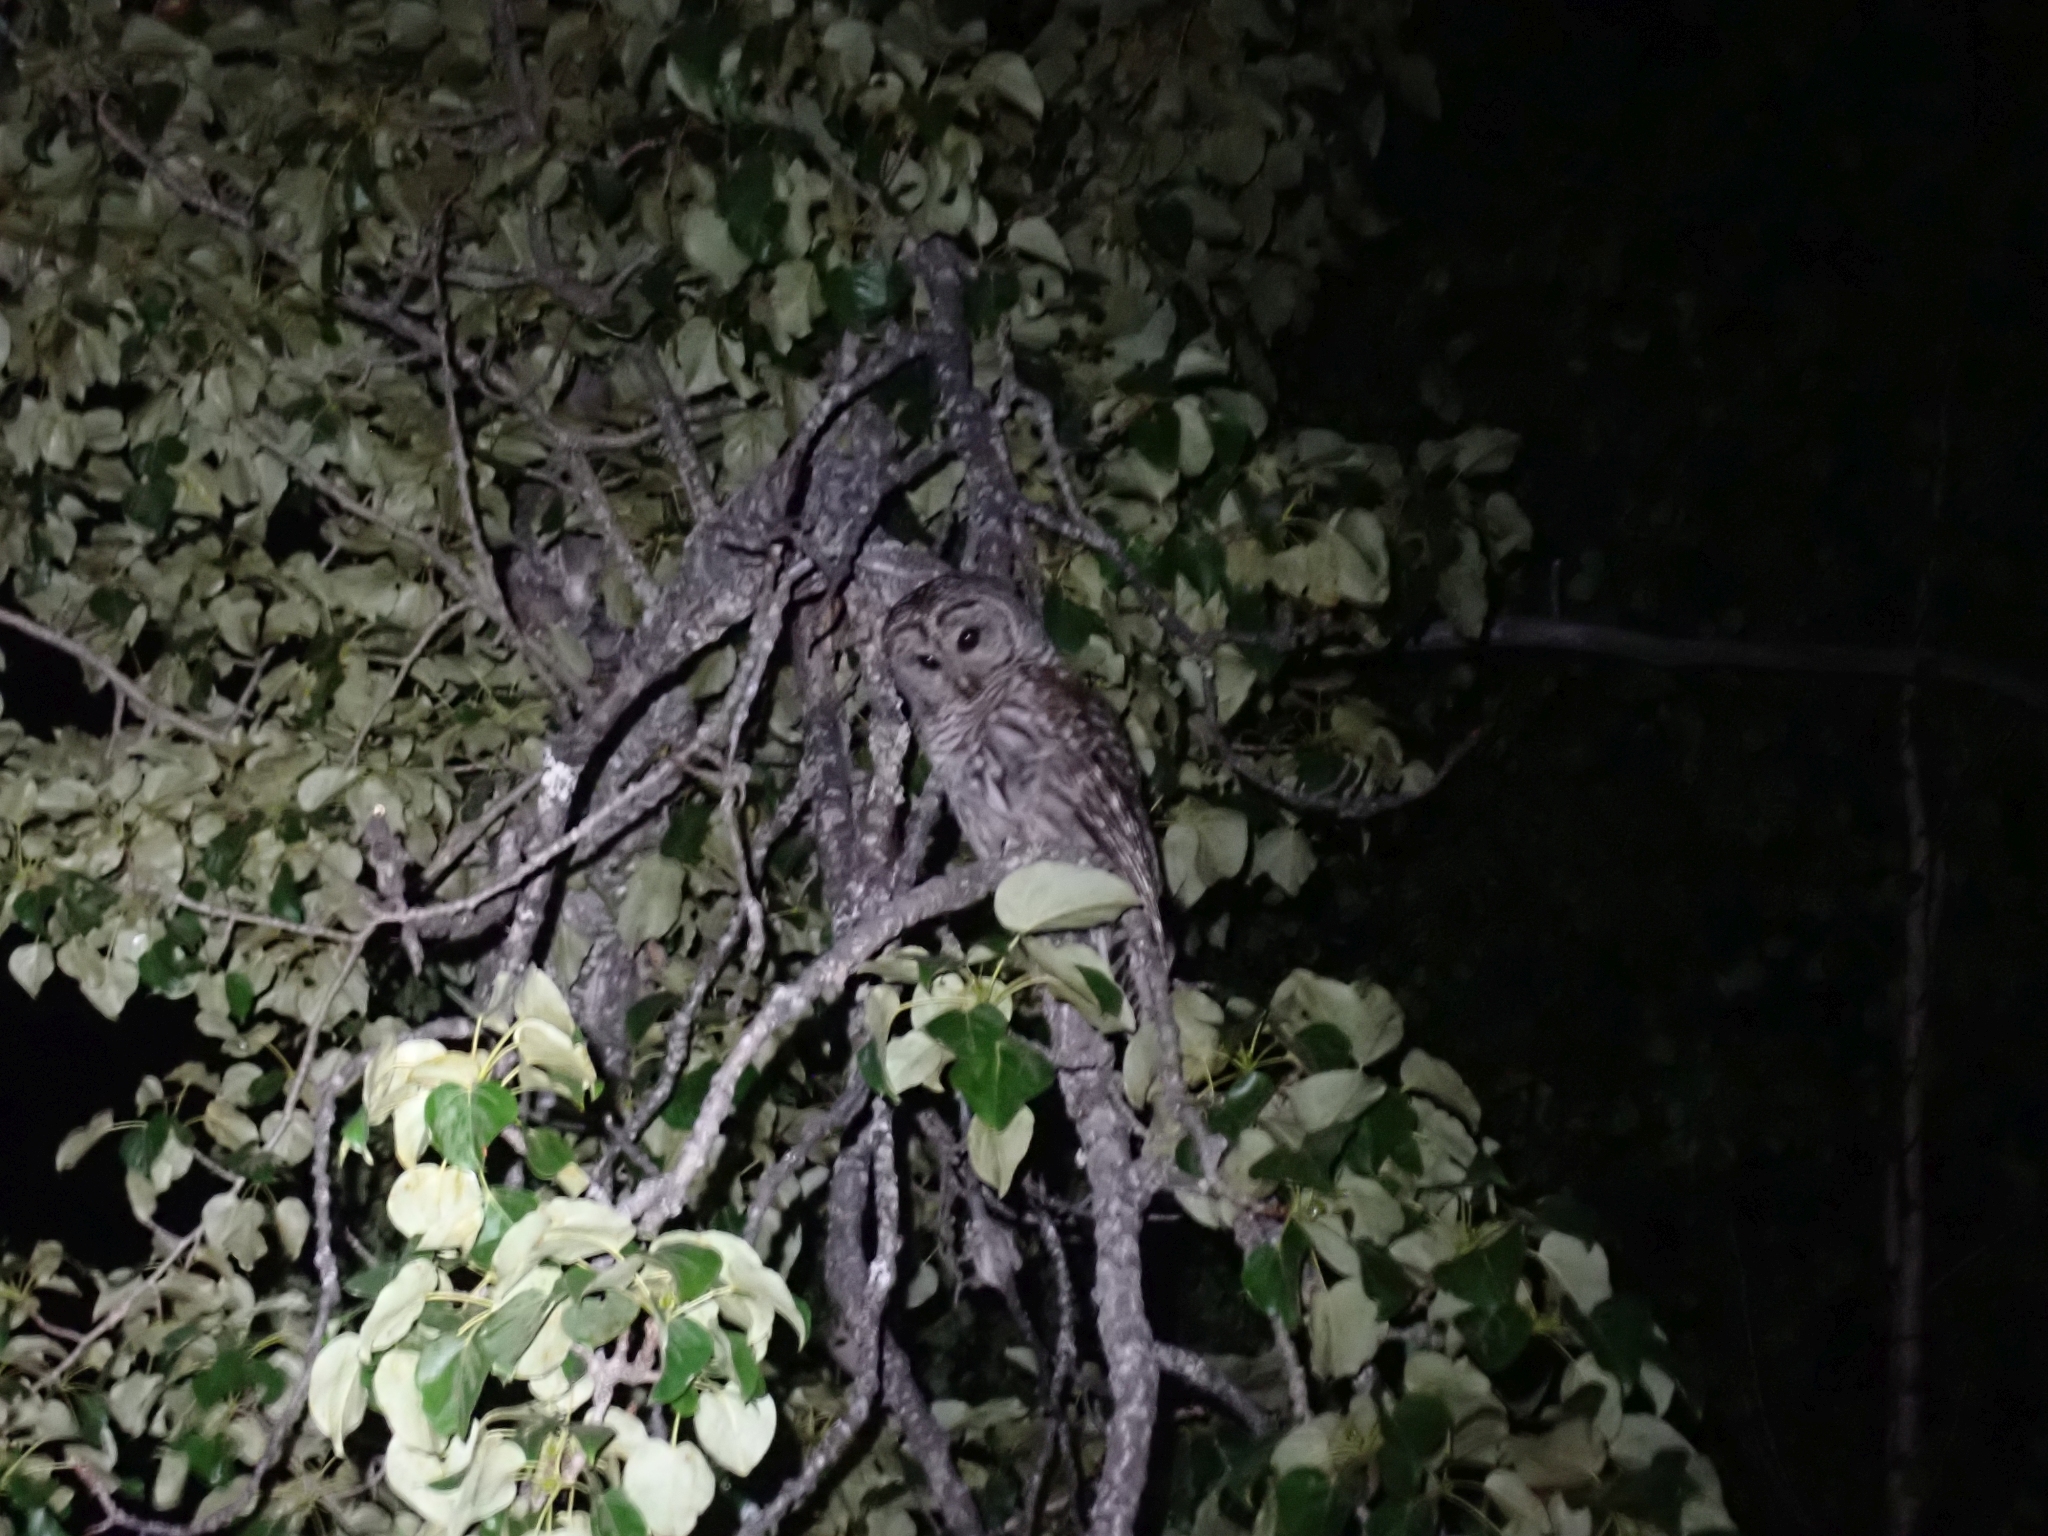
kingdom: Animalia
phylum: Chordata
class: Aves
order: Strigiformes
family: Strigidae
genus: Strix
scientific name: Strix varia
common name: Barred owl
